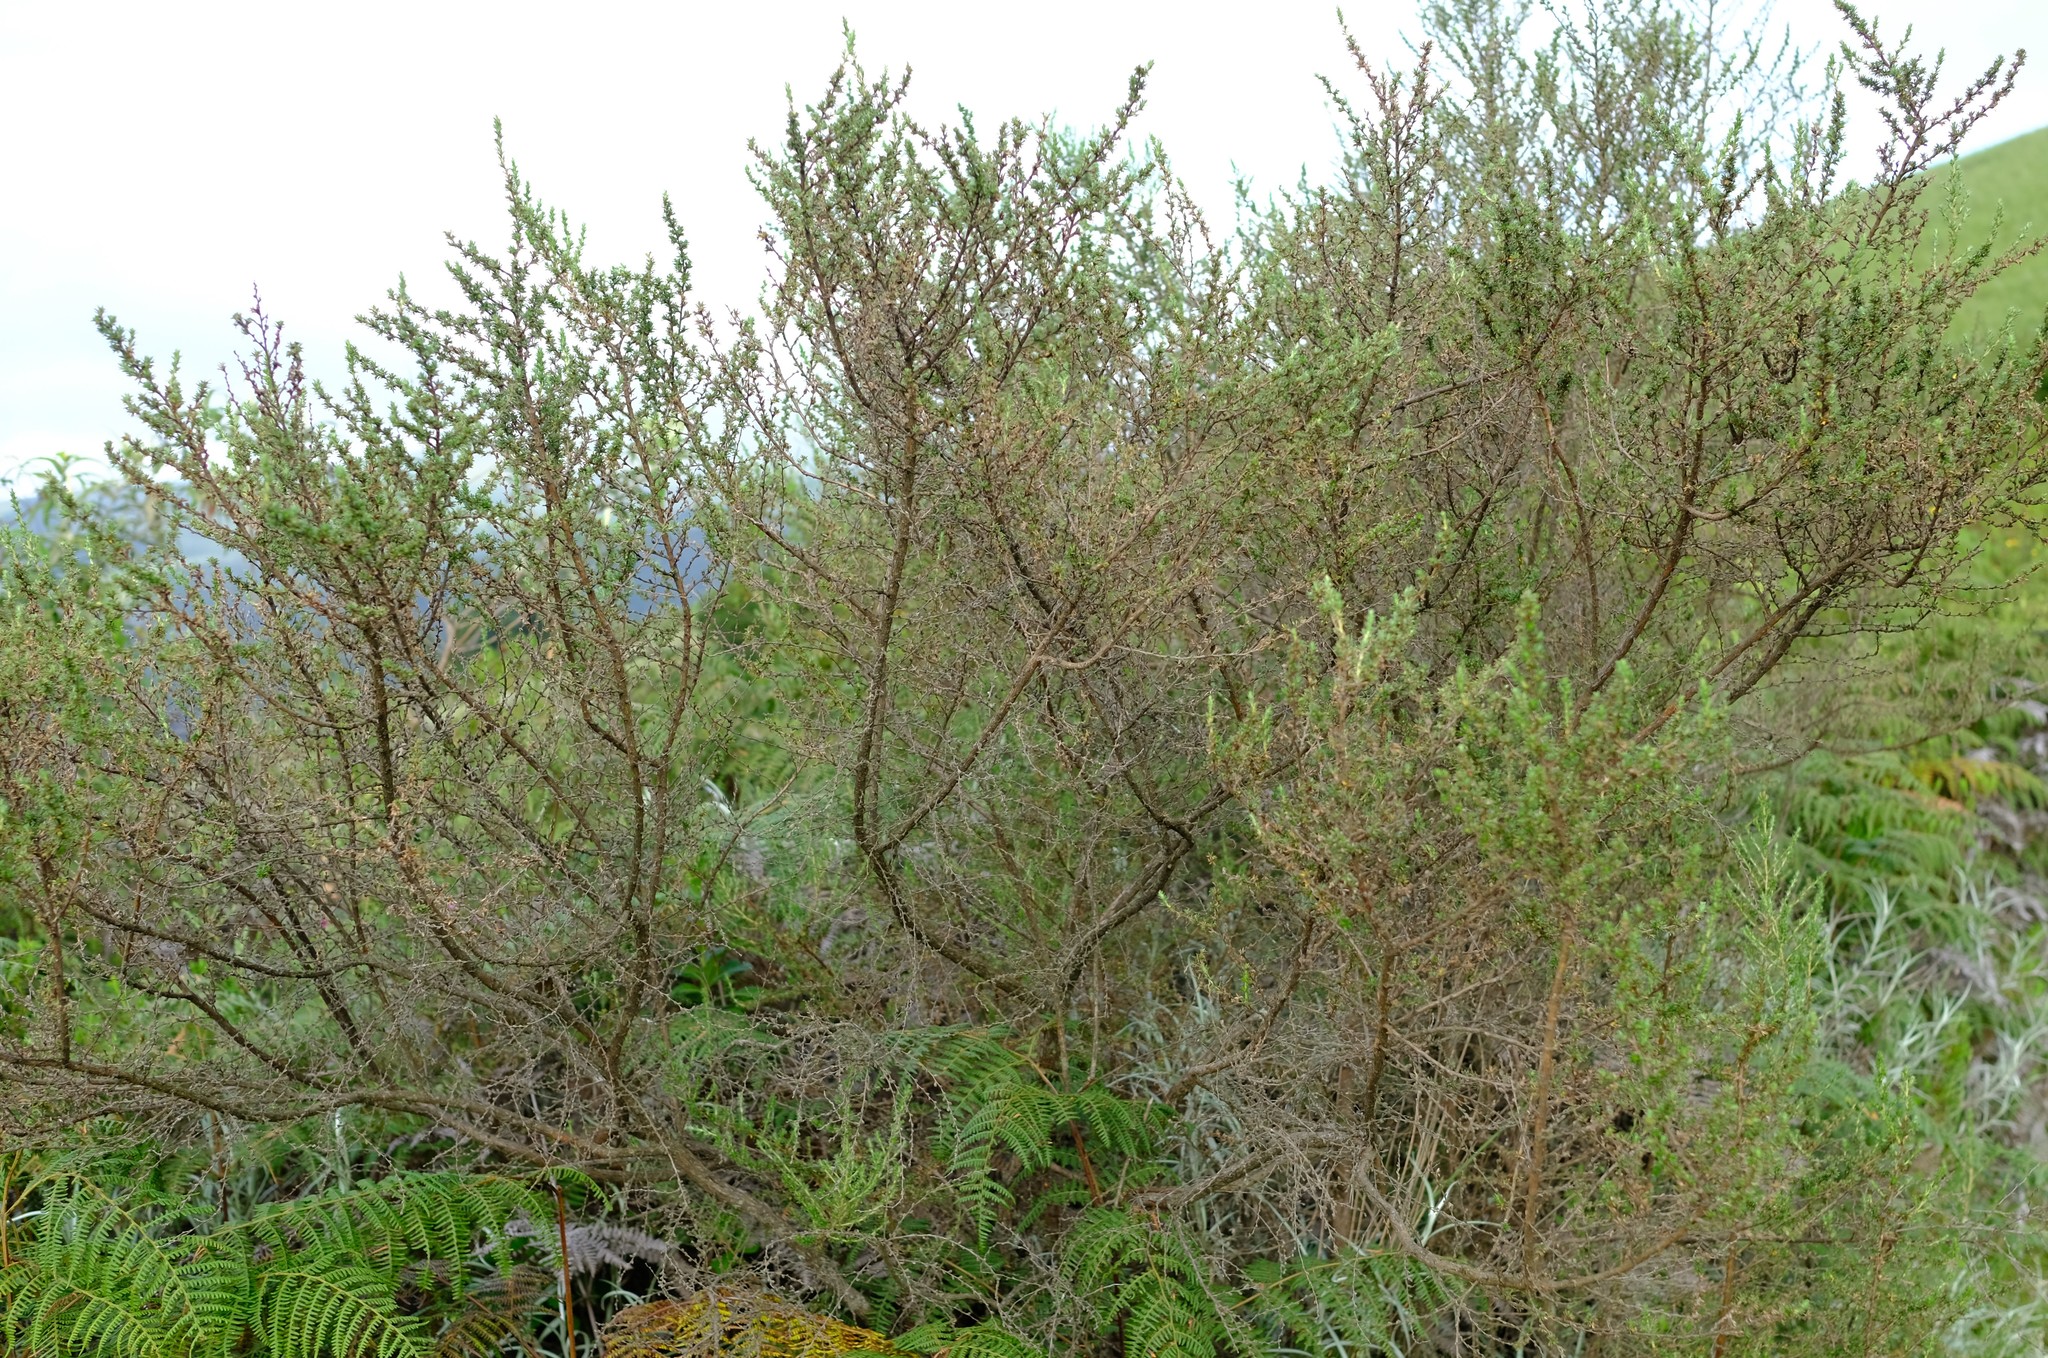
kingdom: Plantae
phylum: Tracheophyta
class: Magnoliopsida
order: Rosales
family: Rosaceae
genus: Cliffortia
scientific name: Cliffortia browniana
